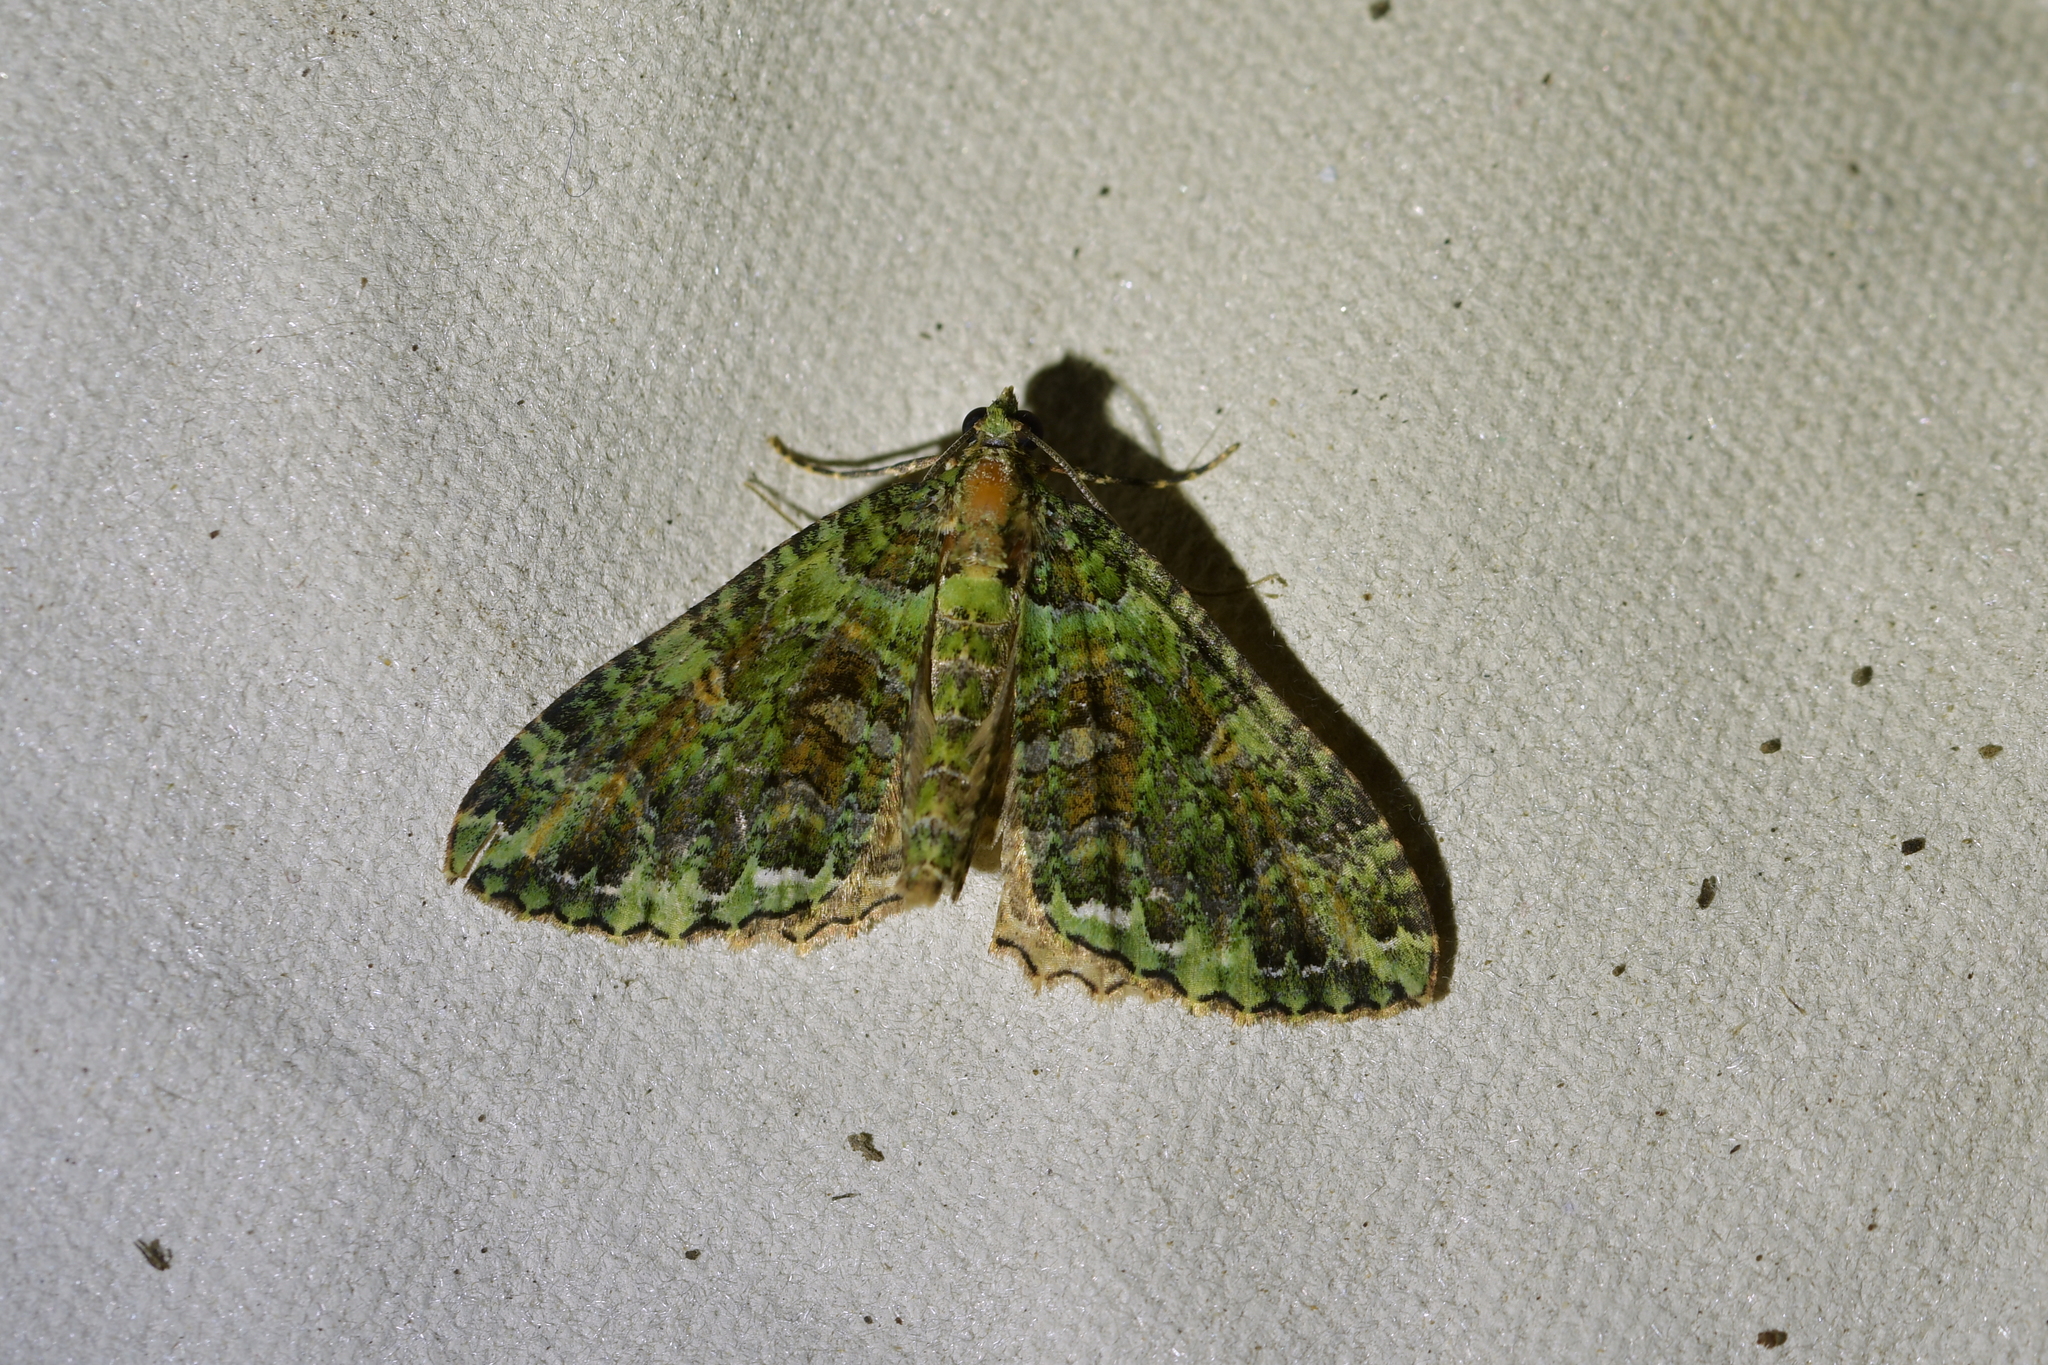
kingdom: Animalia
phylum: Arthropoda
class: Insecta
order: Lepidoptera
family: Geometridae
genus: Austrocidaria
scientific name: Austrocidaria similata
